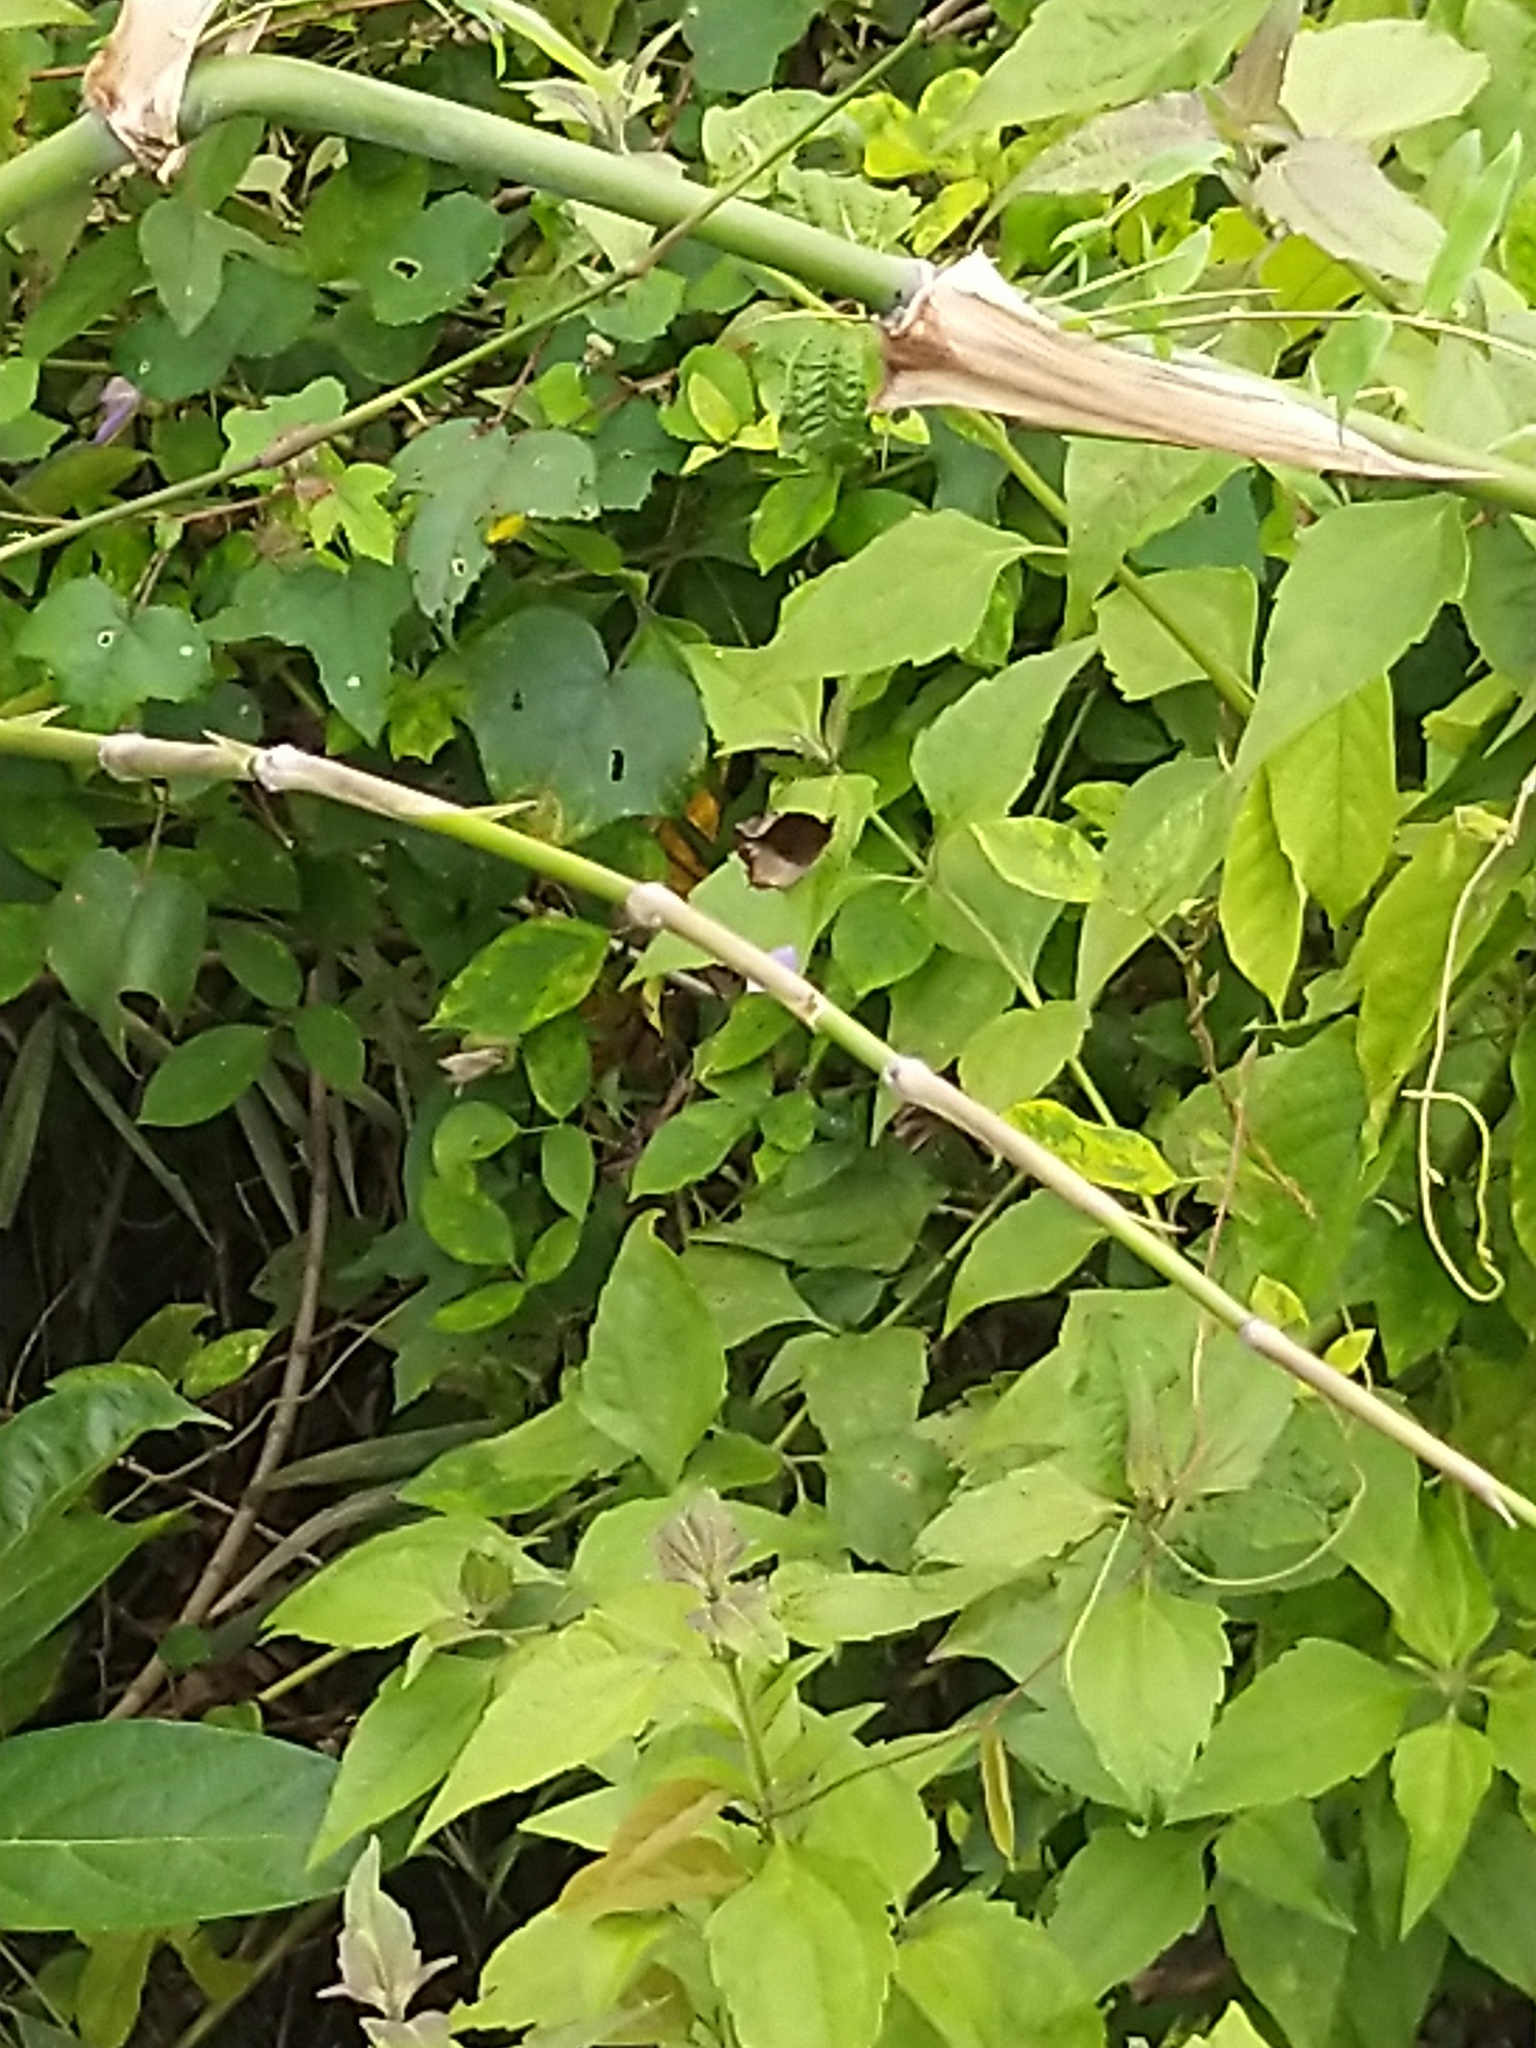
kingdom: Animalia
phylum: Arthropoda
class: Insecta
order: Lepidoptera
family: Nymphalidae
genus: Elymnias
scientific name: Elymnias caudata
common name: Tailed palmfly
